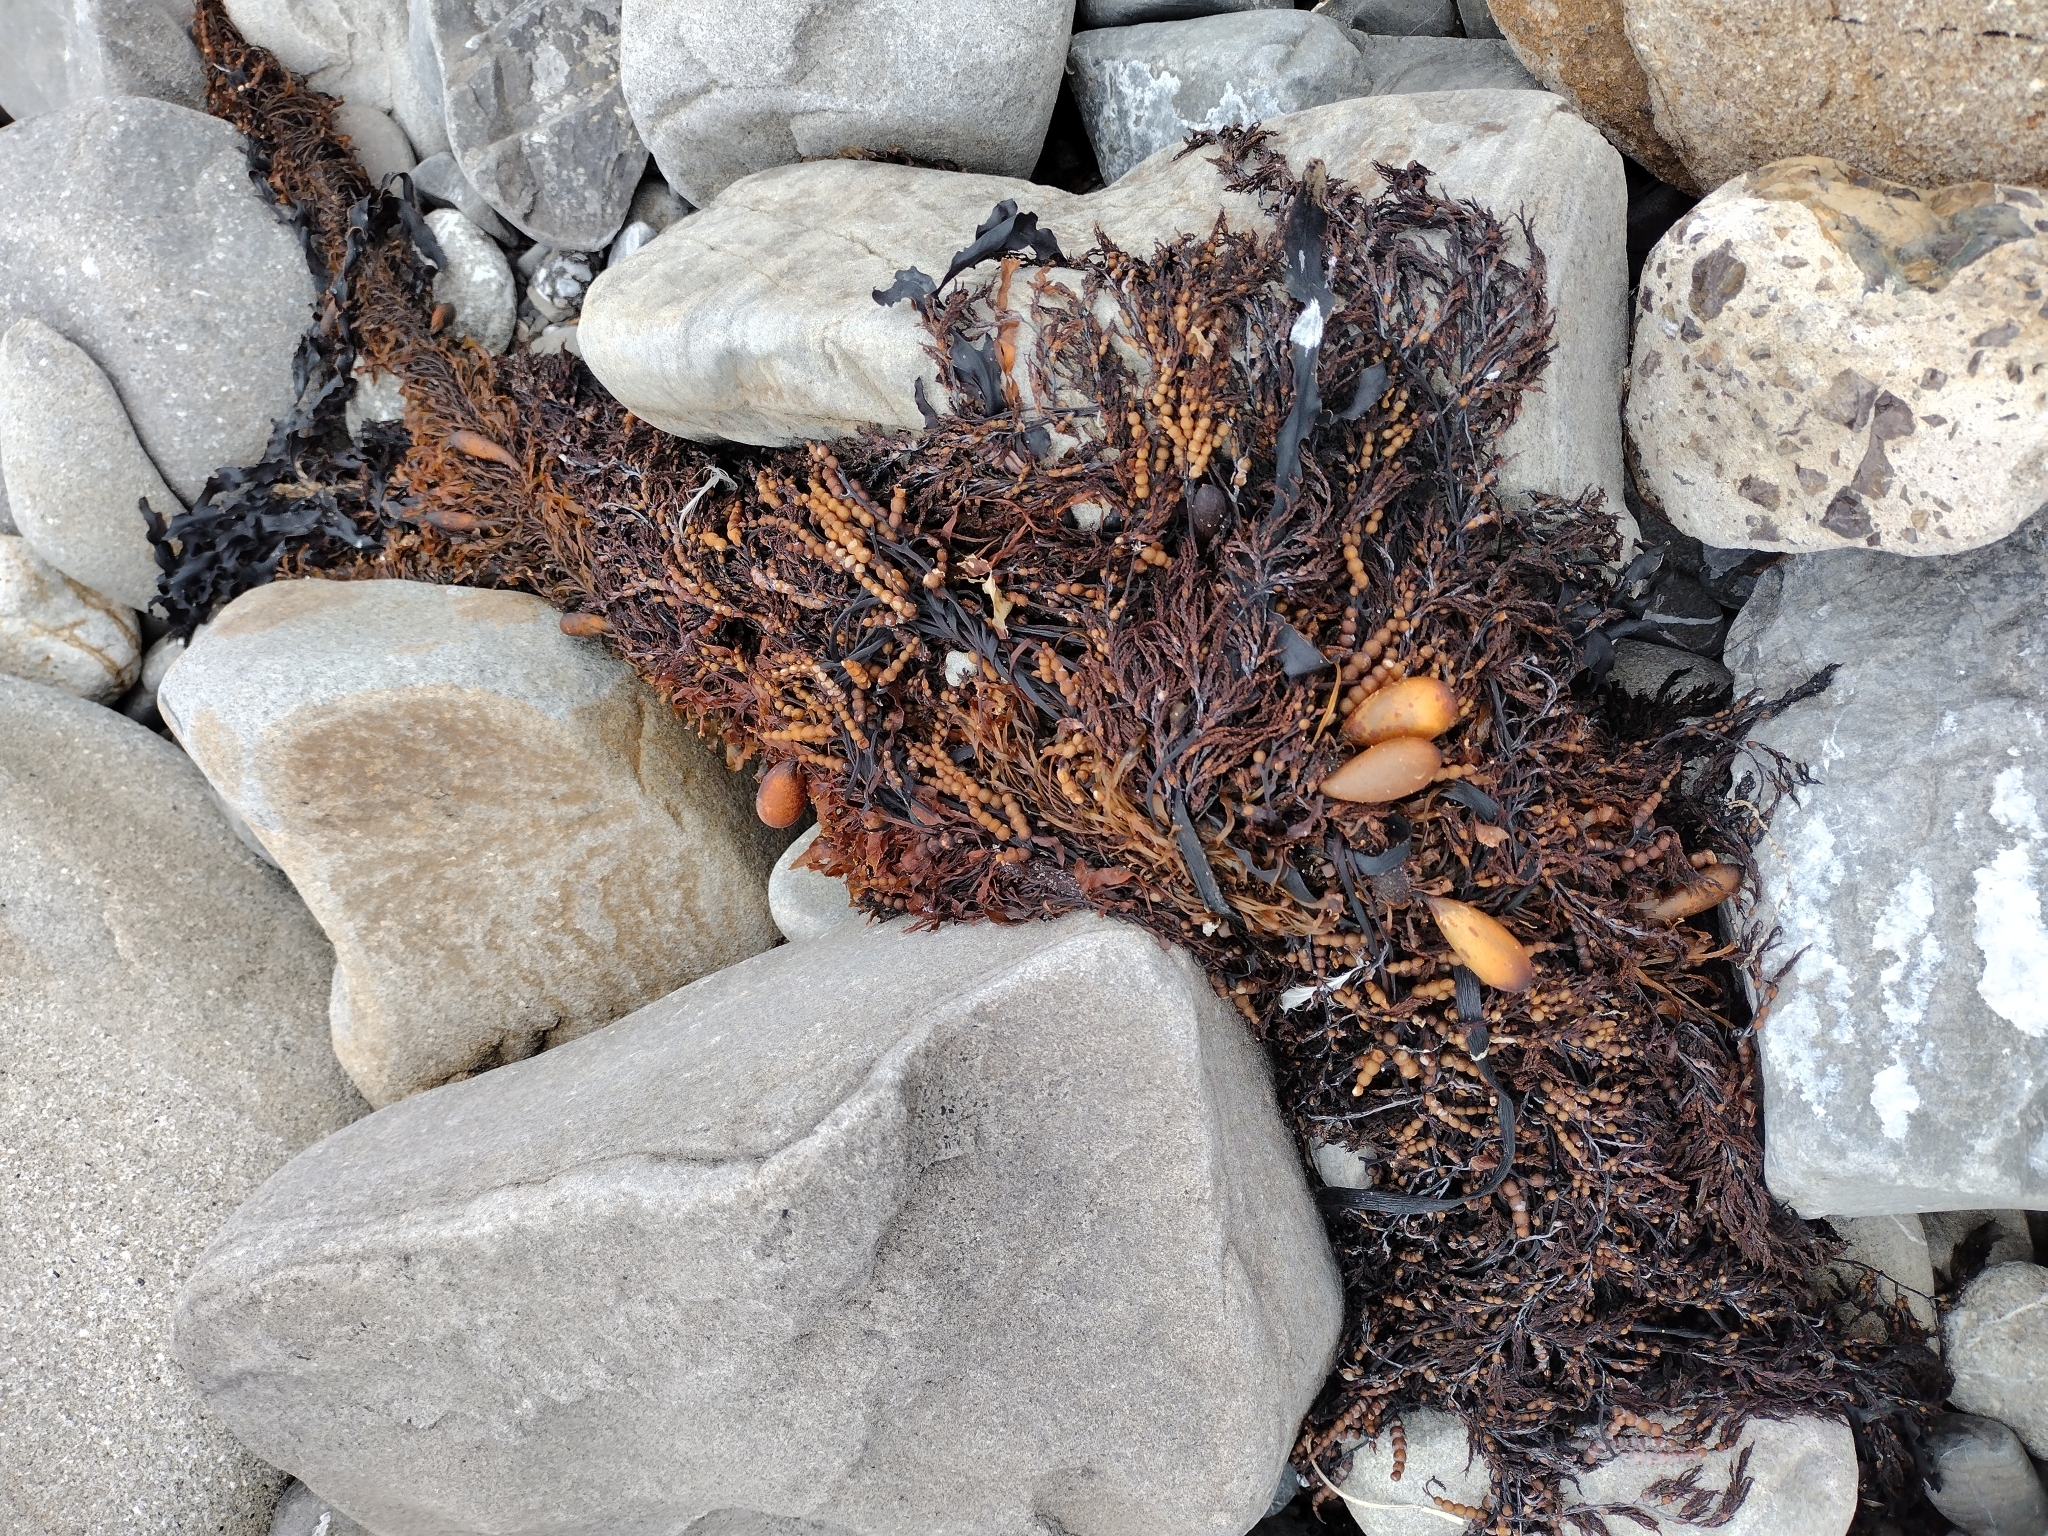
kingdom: Chromista
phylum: Ochrophyta
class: Phaeophyceae
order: Fucales
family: Sargassaceae
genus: Stephanocystis
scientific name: Stephanocystis
